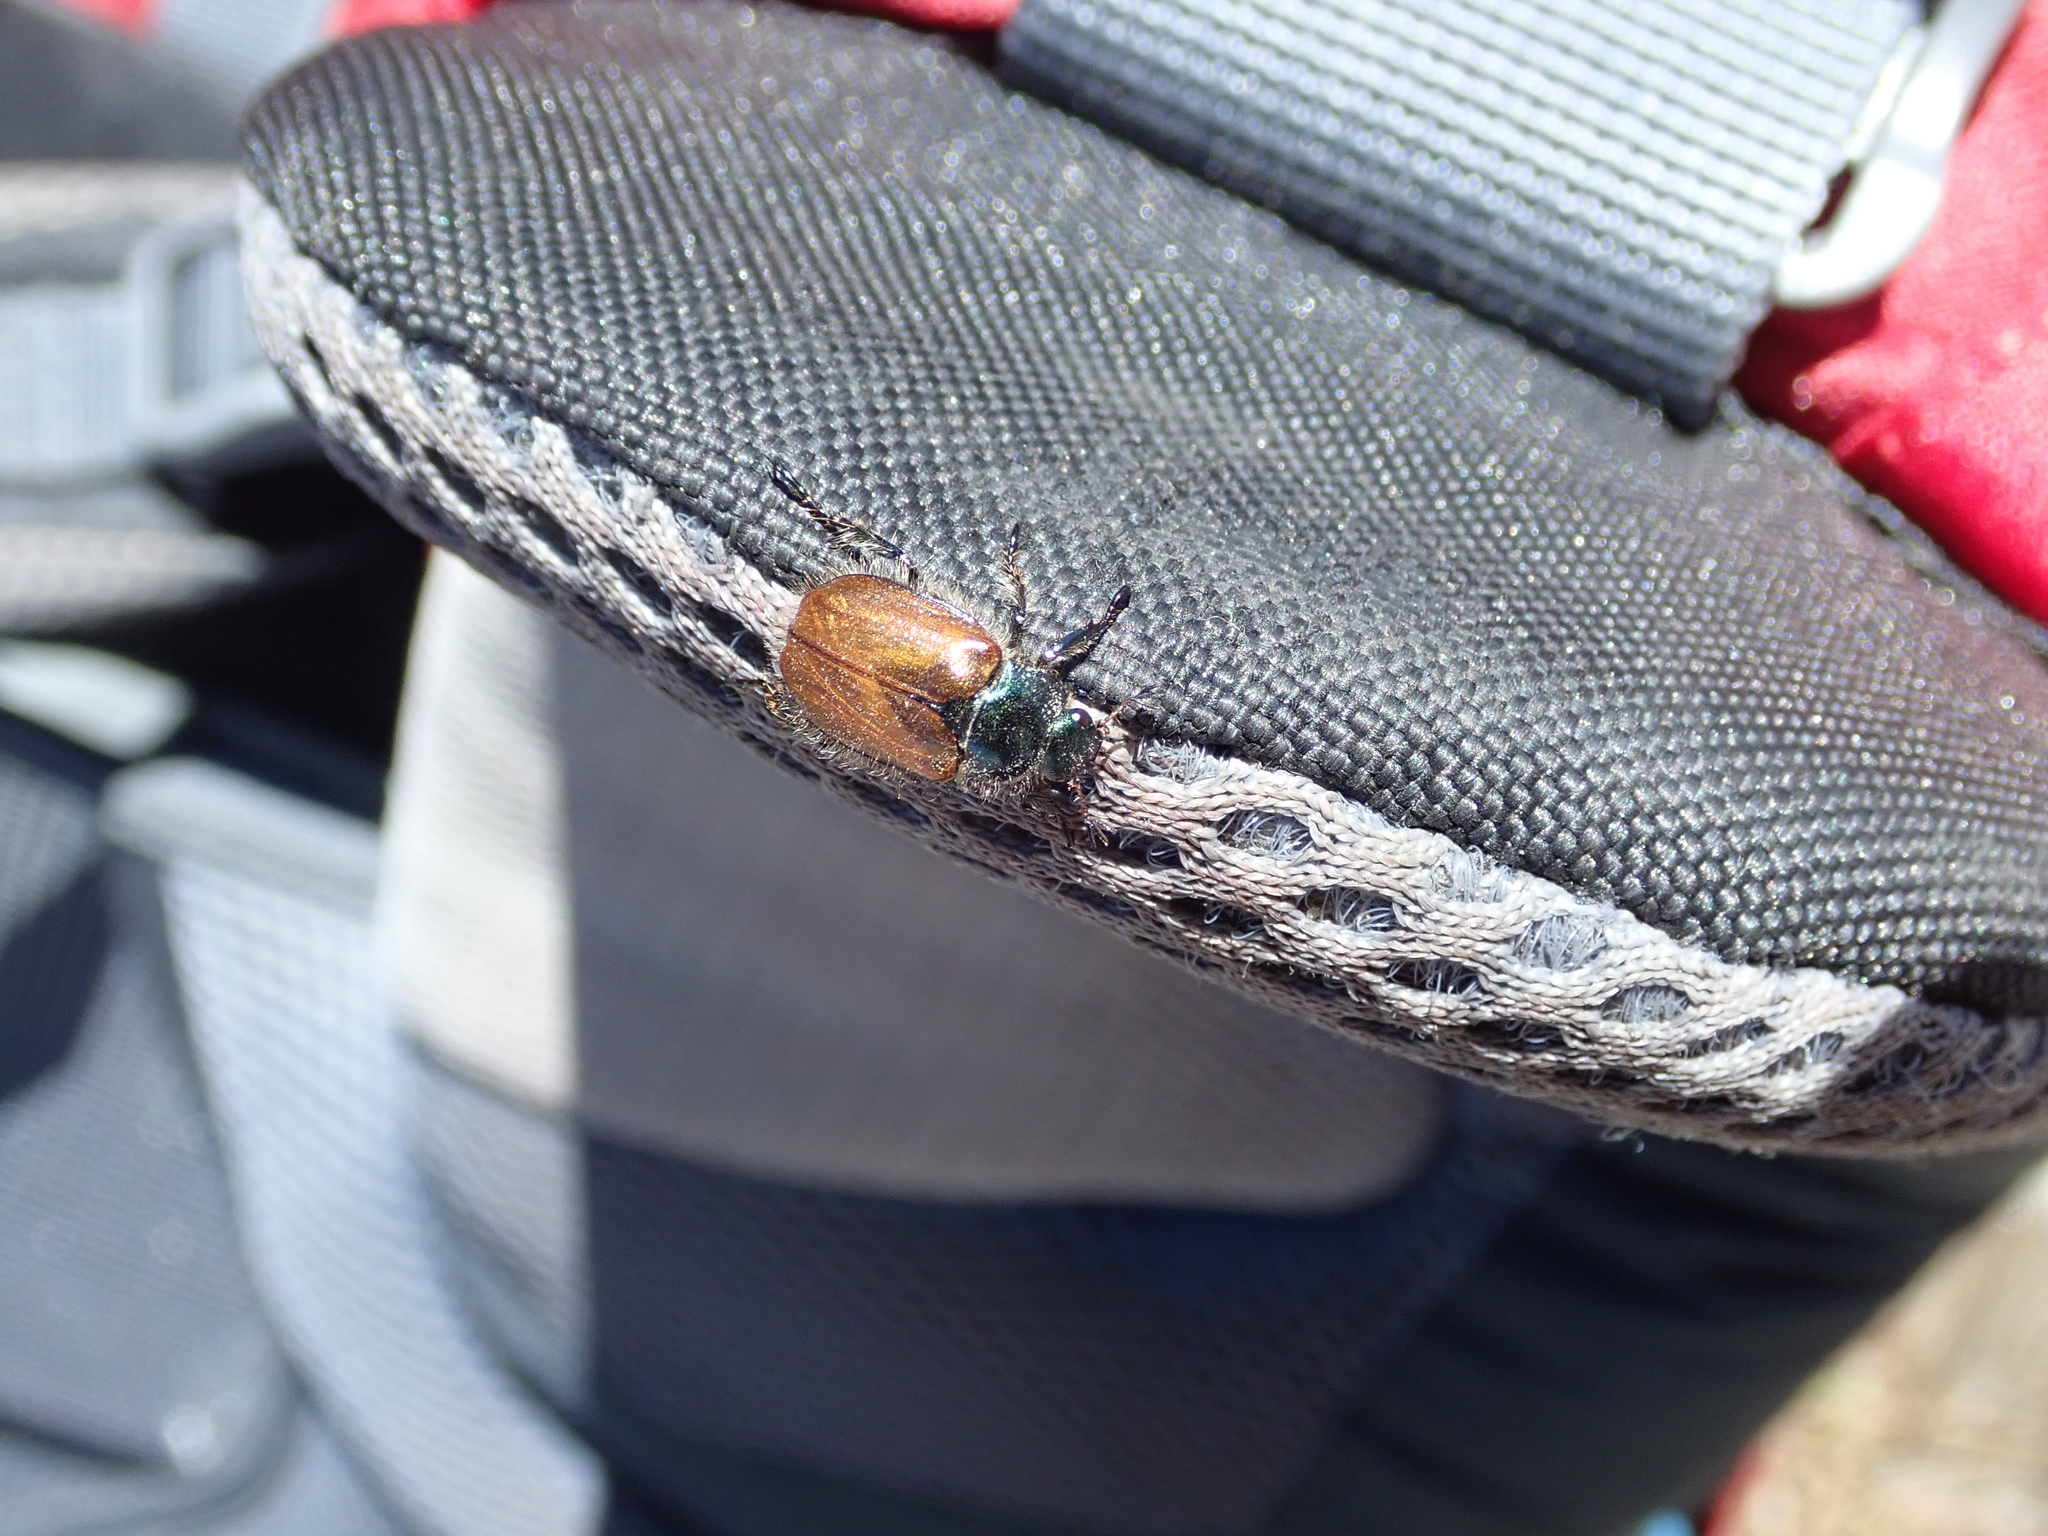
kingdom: Animalia
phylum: Arthropoda
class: Insecta
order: Coleoptera
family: Scarabaeidae
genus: Phyllopertha
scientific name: Phyllopertha horticola
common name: Garden chafer
